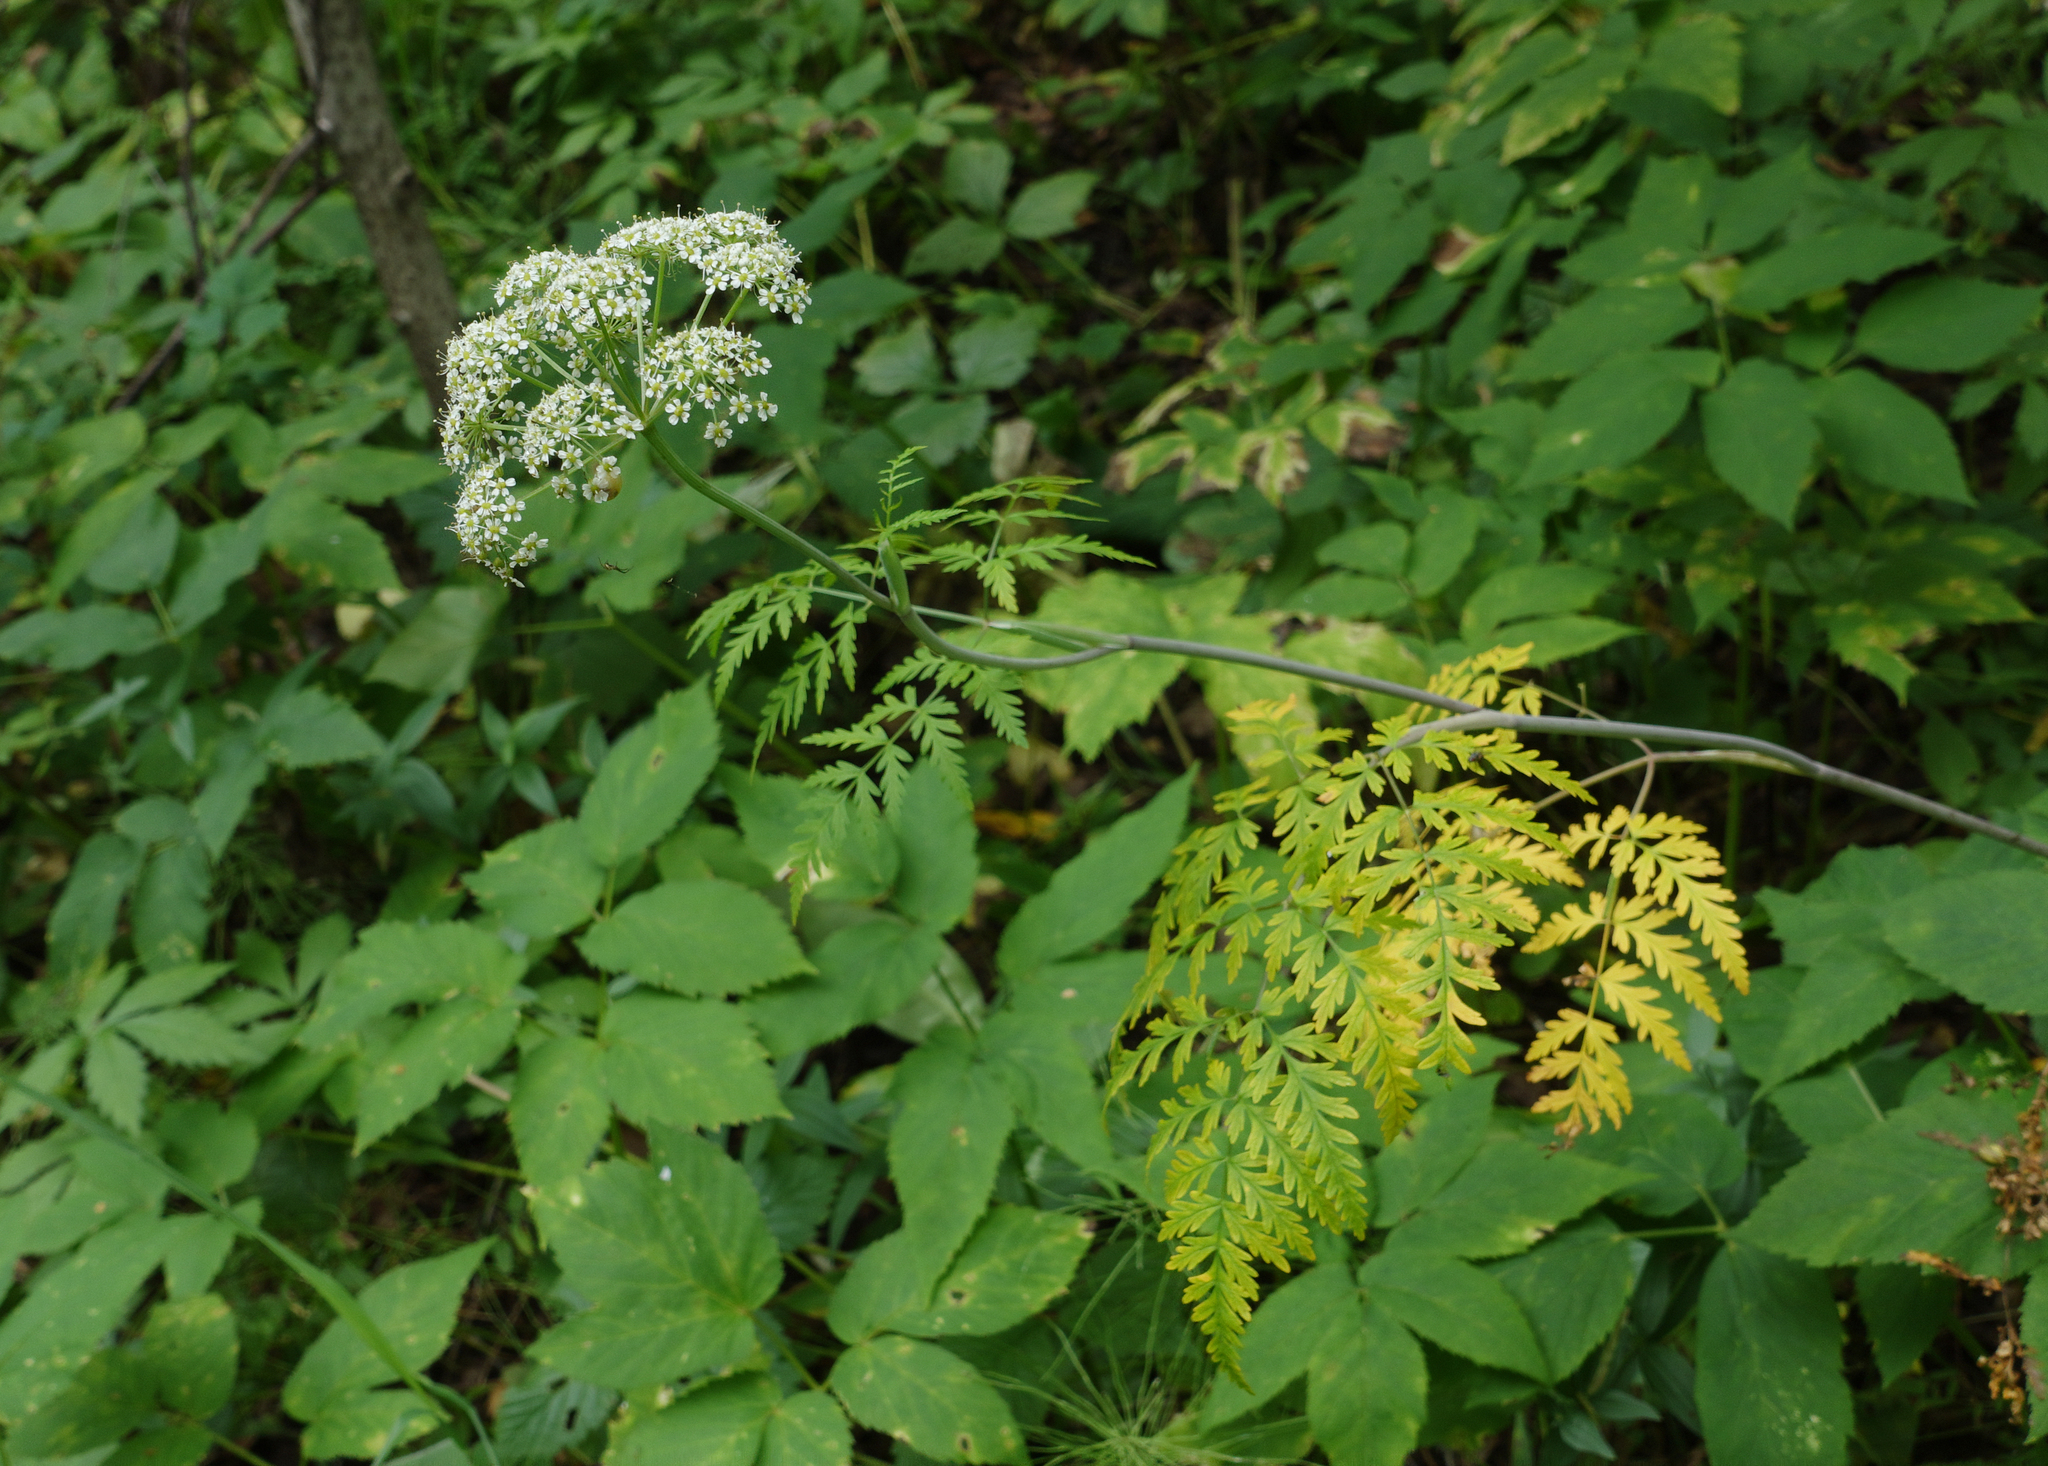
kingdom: Plantae
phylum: Tracheophyta
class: Magnoliopsida
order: Apiales
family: Apiaceae
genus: Conioselinum
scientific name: Conioselinum tataricum
